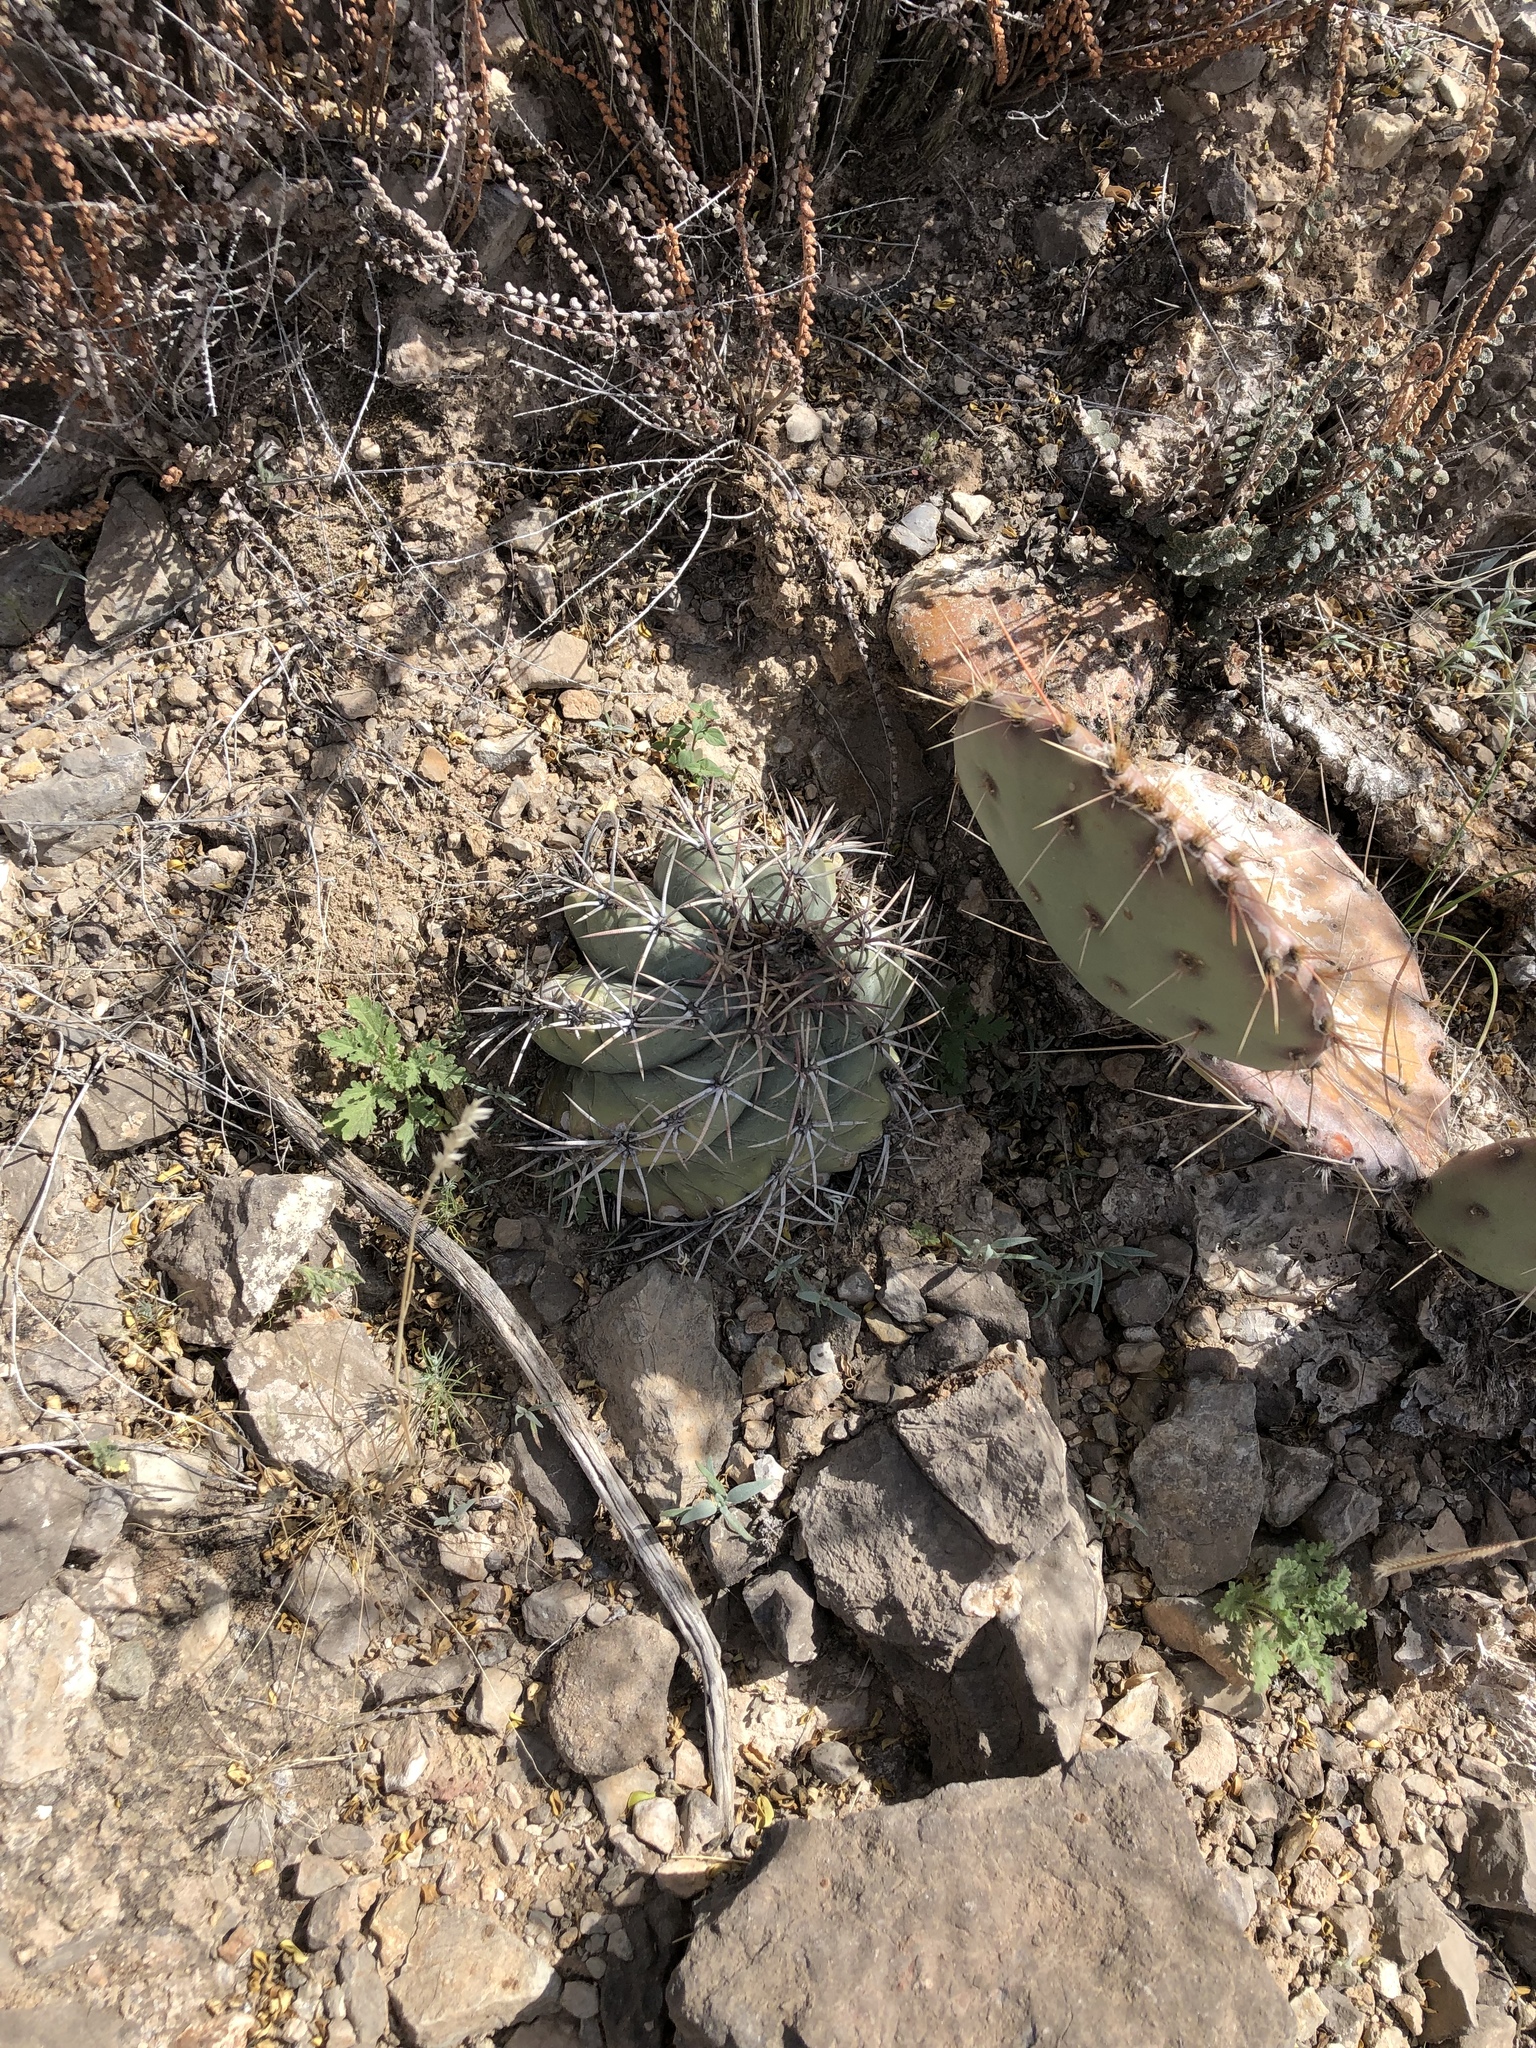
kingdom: Plantae
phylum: Tracheophyta
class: Magnoliopsida
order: Caryophyllales
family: Cactaceae
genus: Echinocactus
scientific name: Echinocactus horizonthalonius
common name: Devilshead
